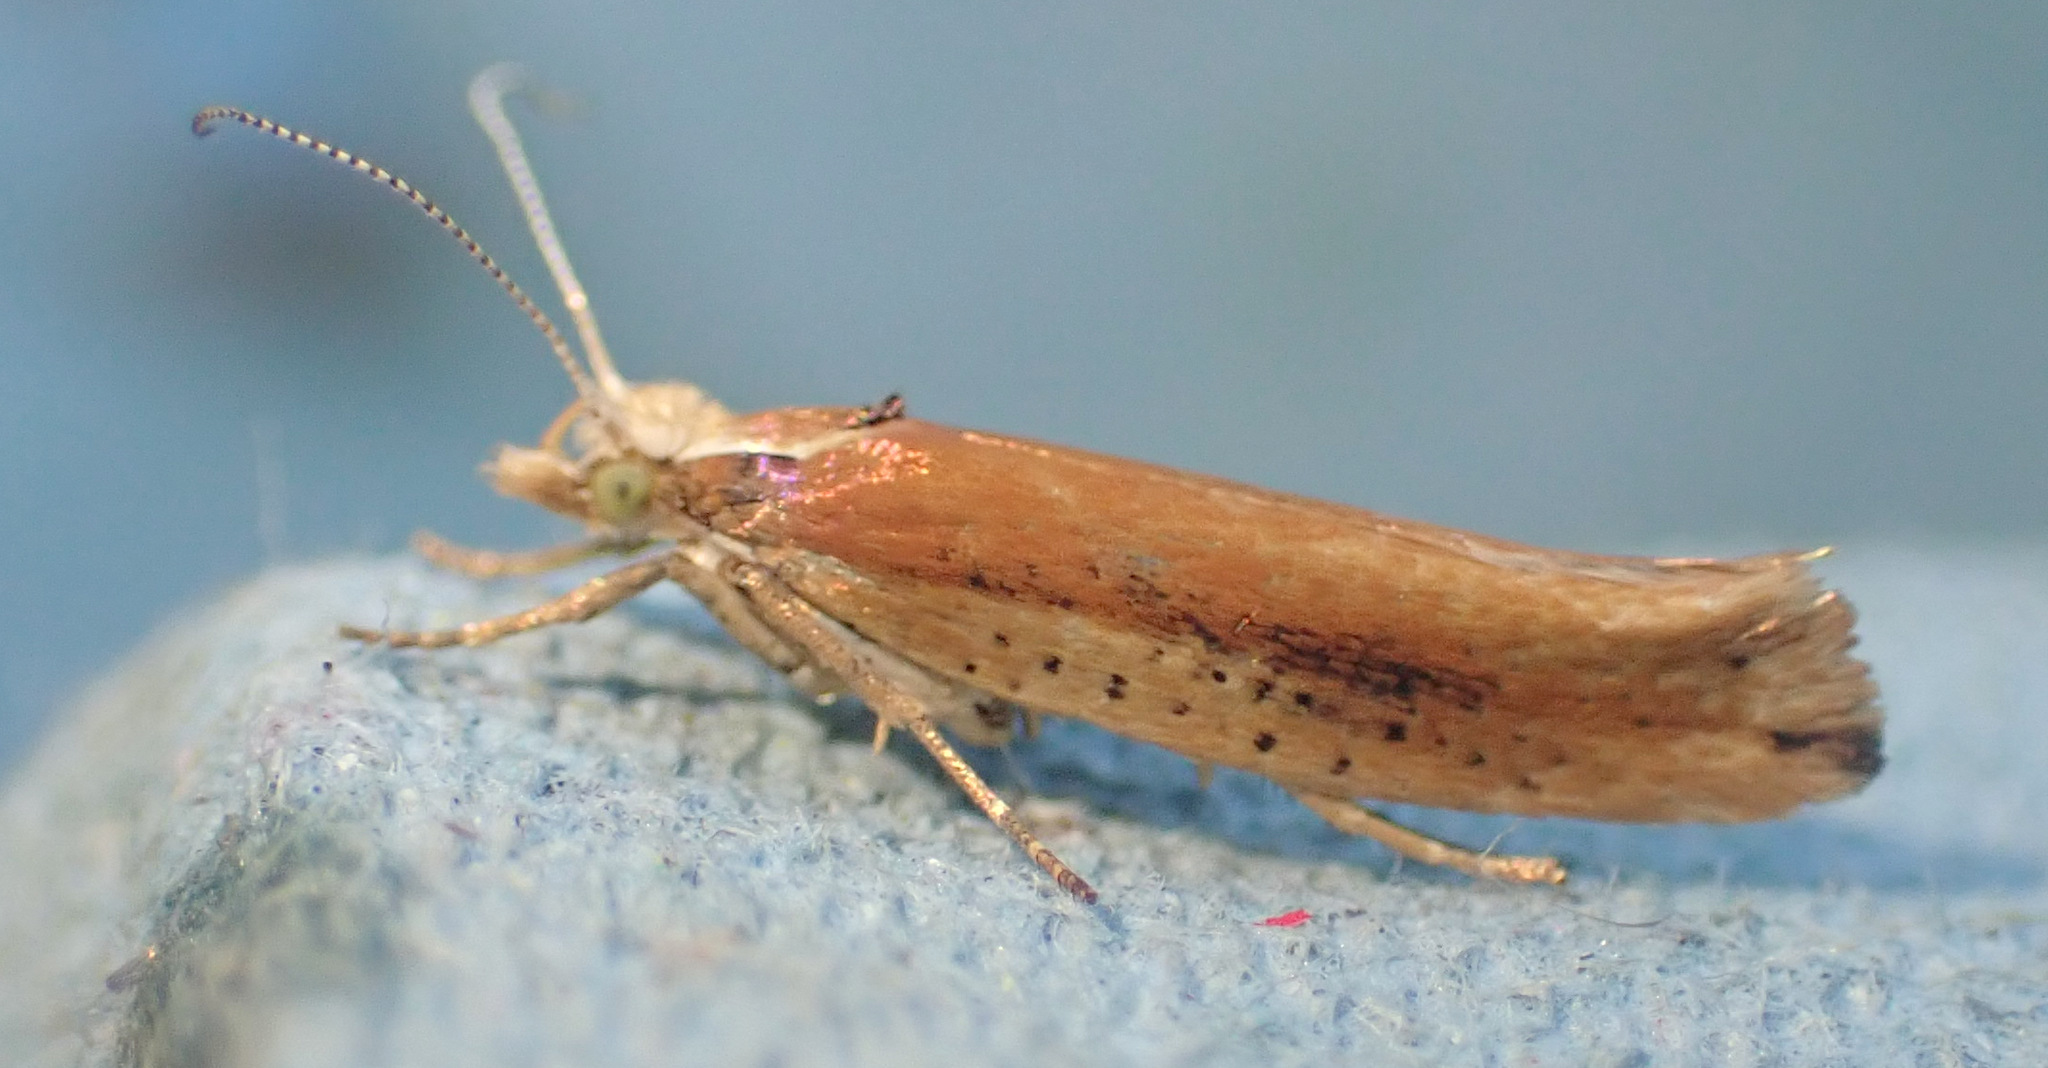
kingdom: Animalia
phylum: Arthropoda
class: Insecta
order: Lepidoptera
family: Ypsolophidae
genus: Ypsolopha
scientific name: Ypsolopha parenthesella
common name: White-shouldered smudge
